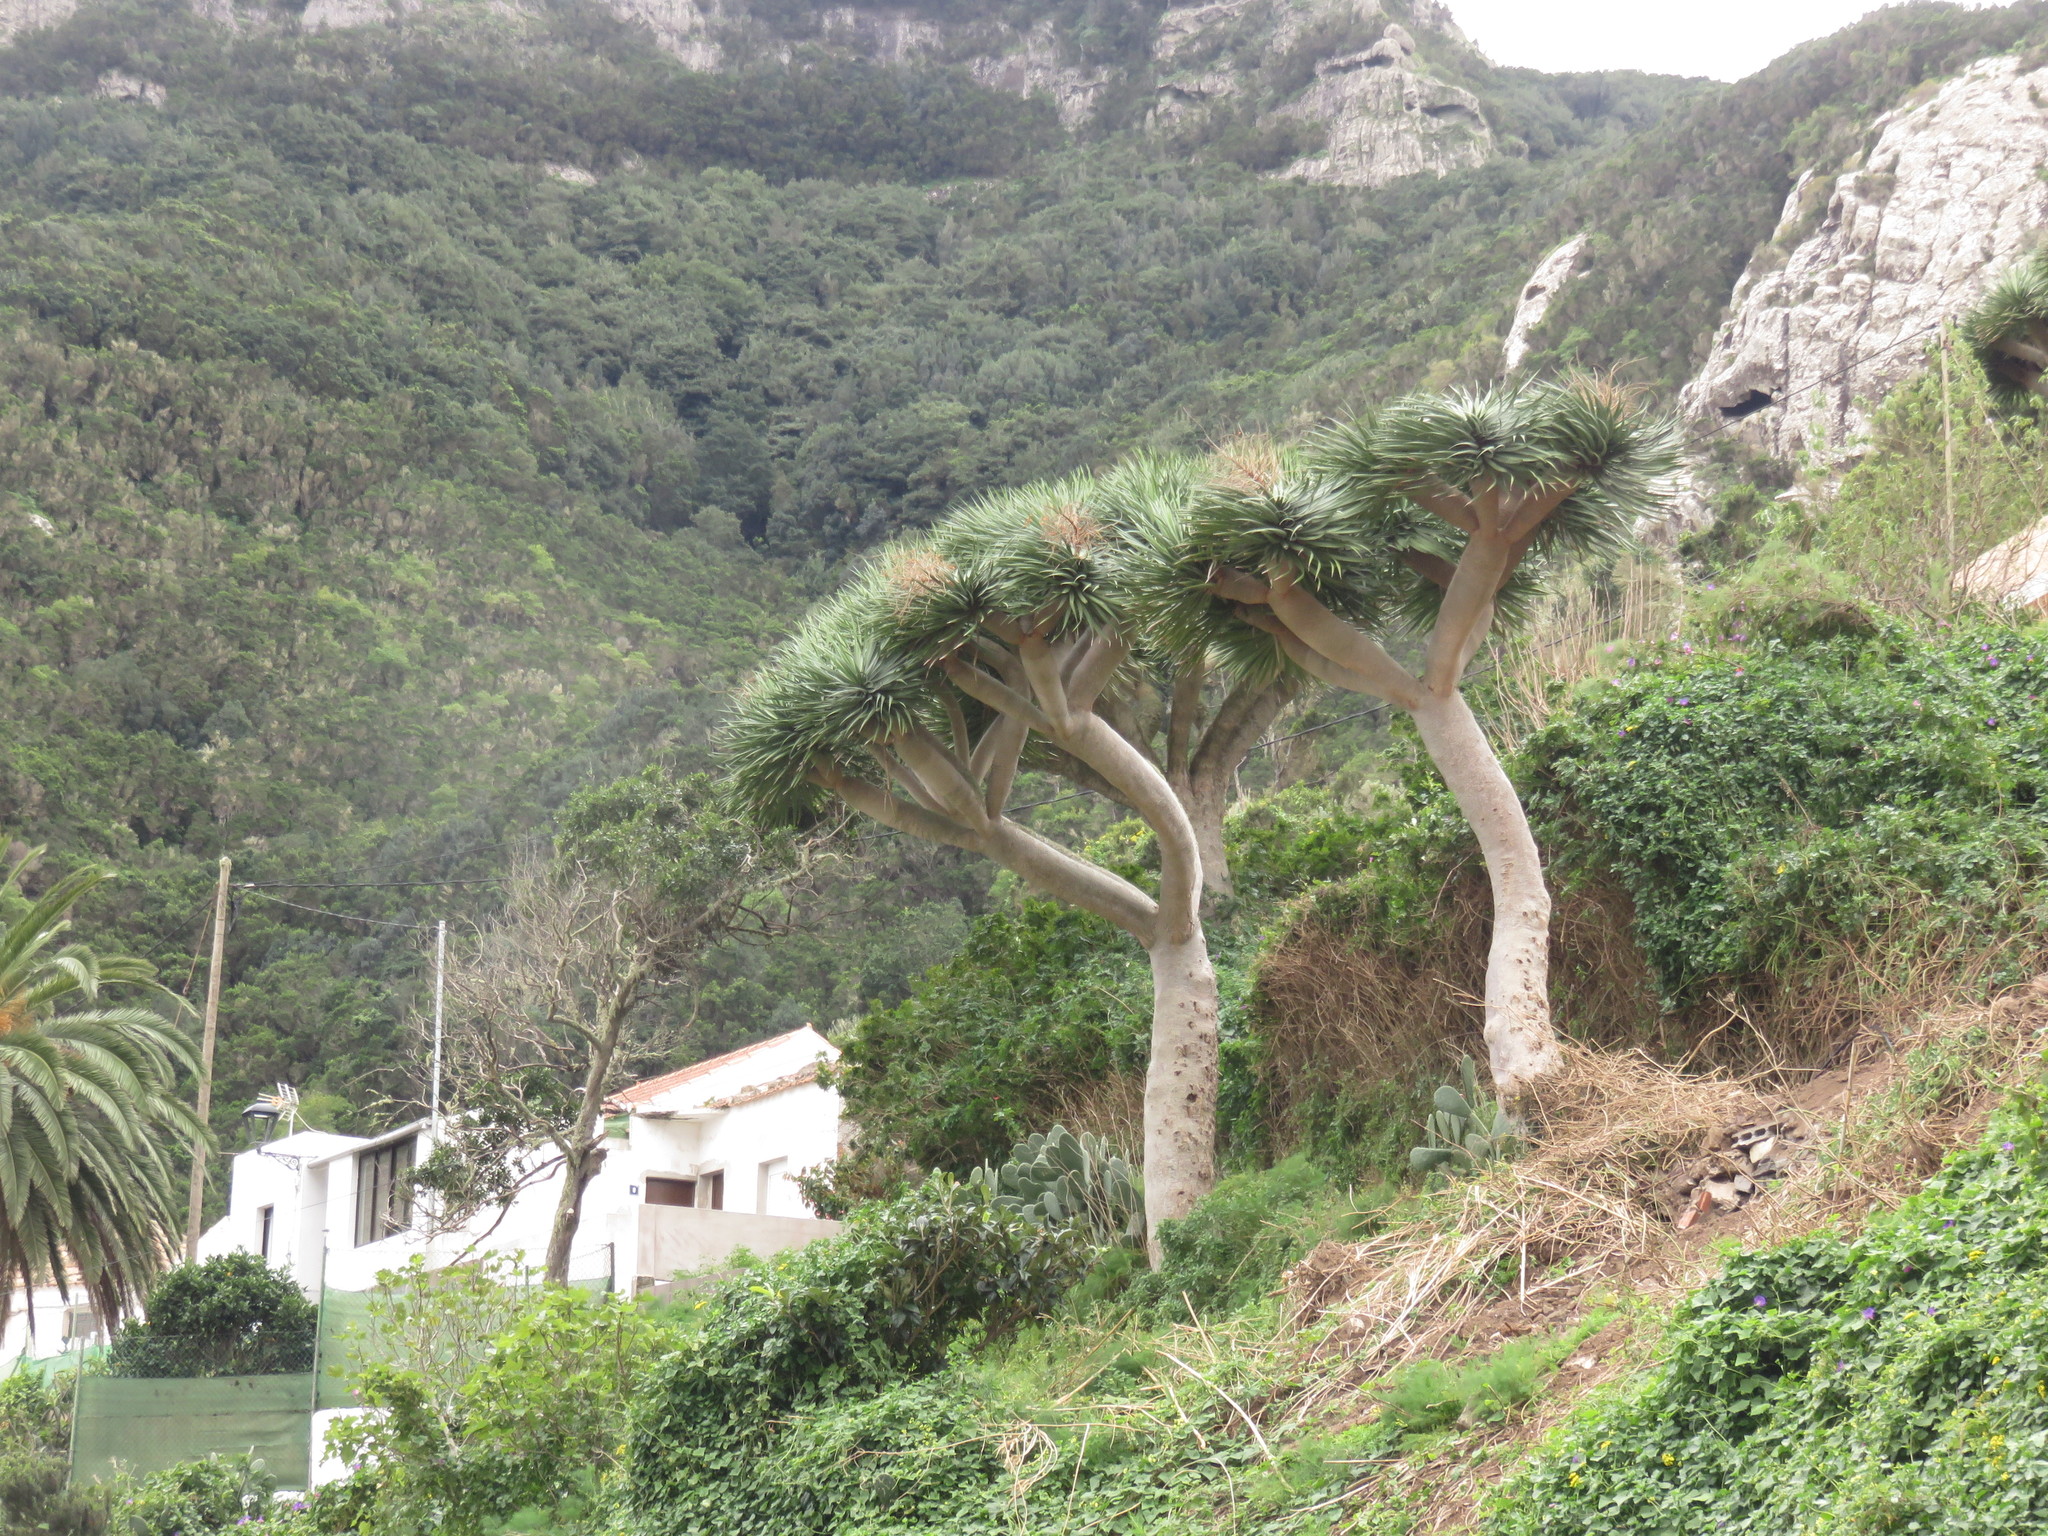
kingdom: Plantae
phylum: Tracheophyta
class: Liliopsida
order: Asparagales
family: Asparagaceae
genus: Dracaena
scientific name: Dracaena draco
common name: Canary island dragon tree
